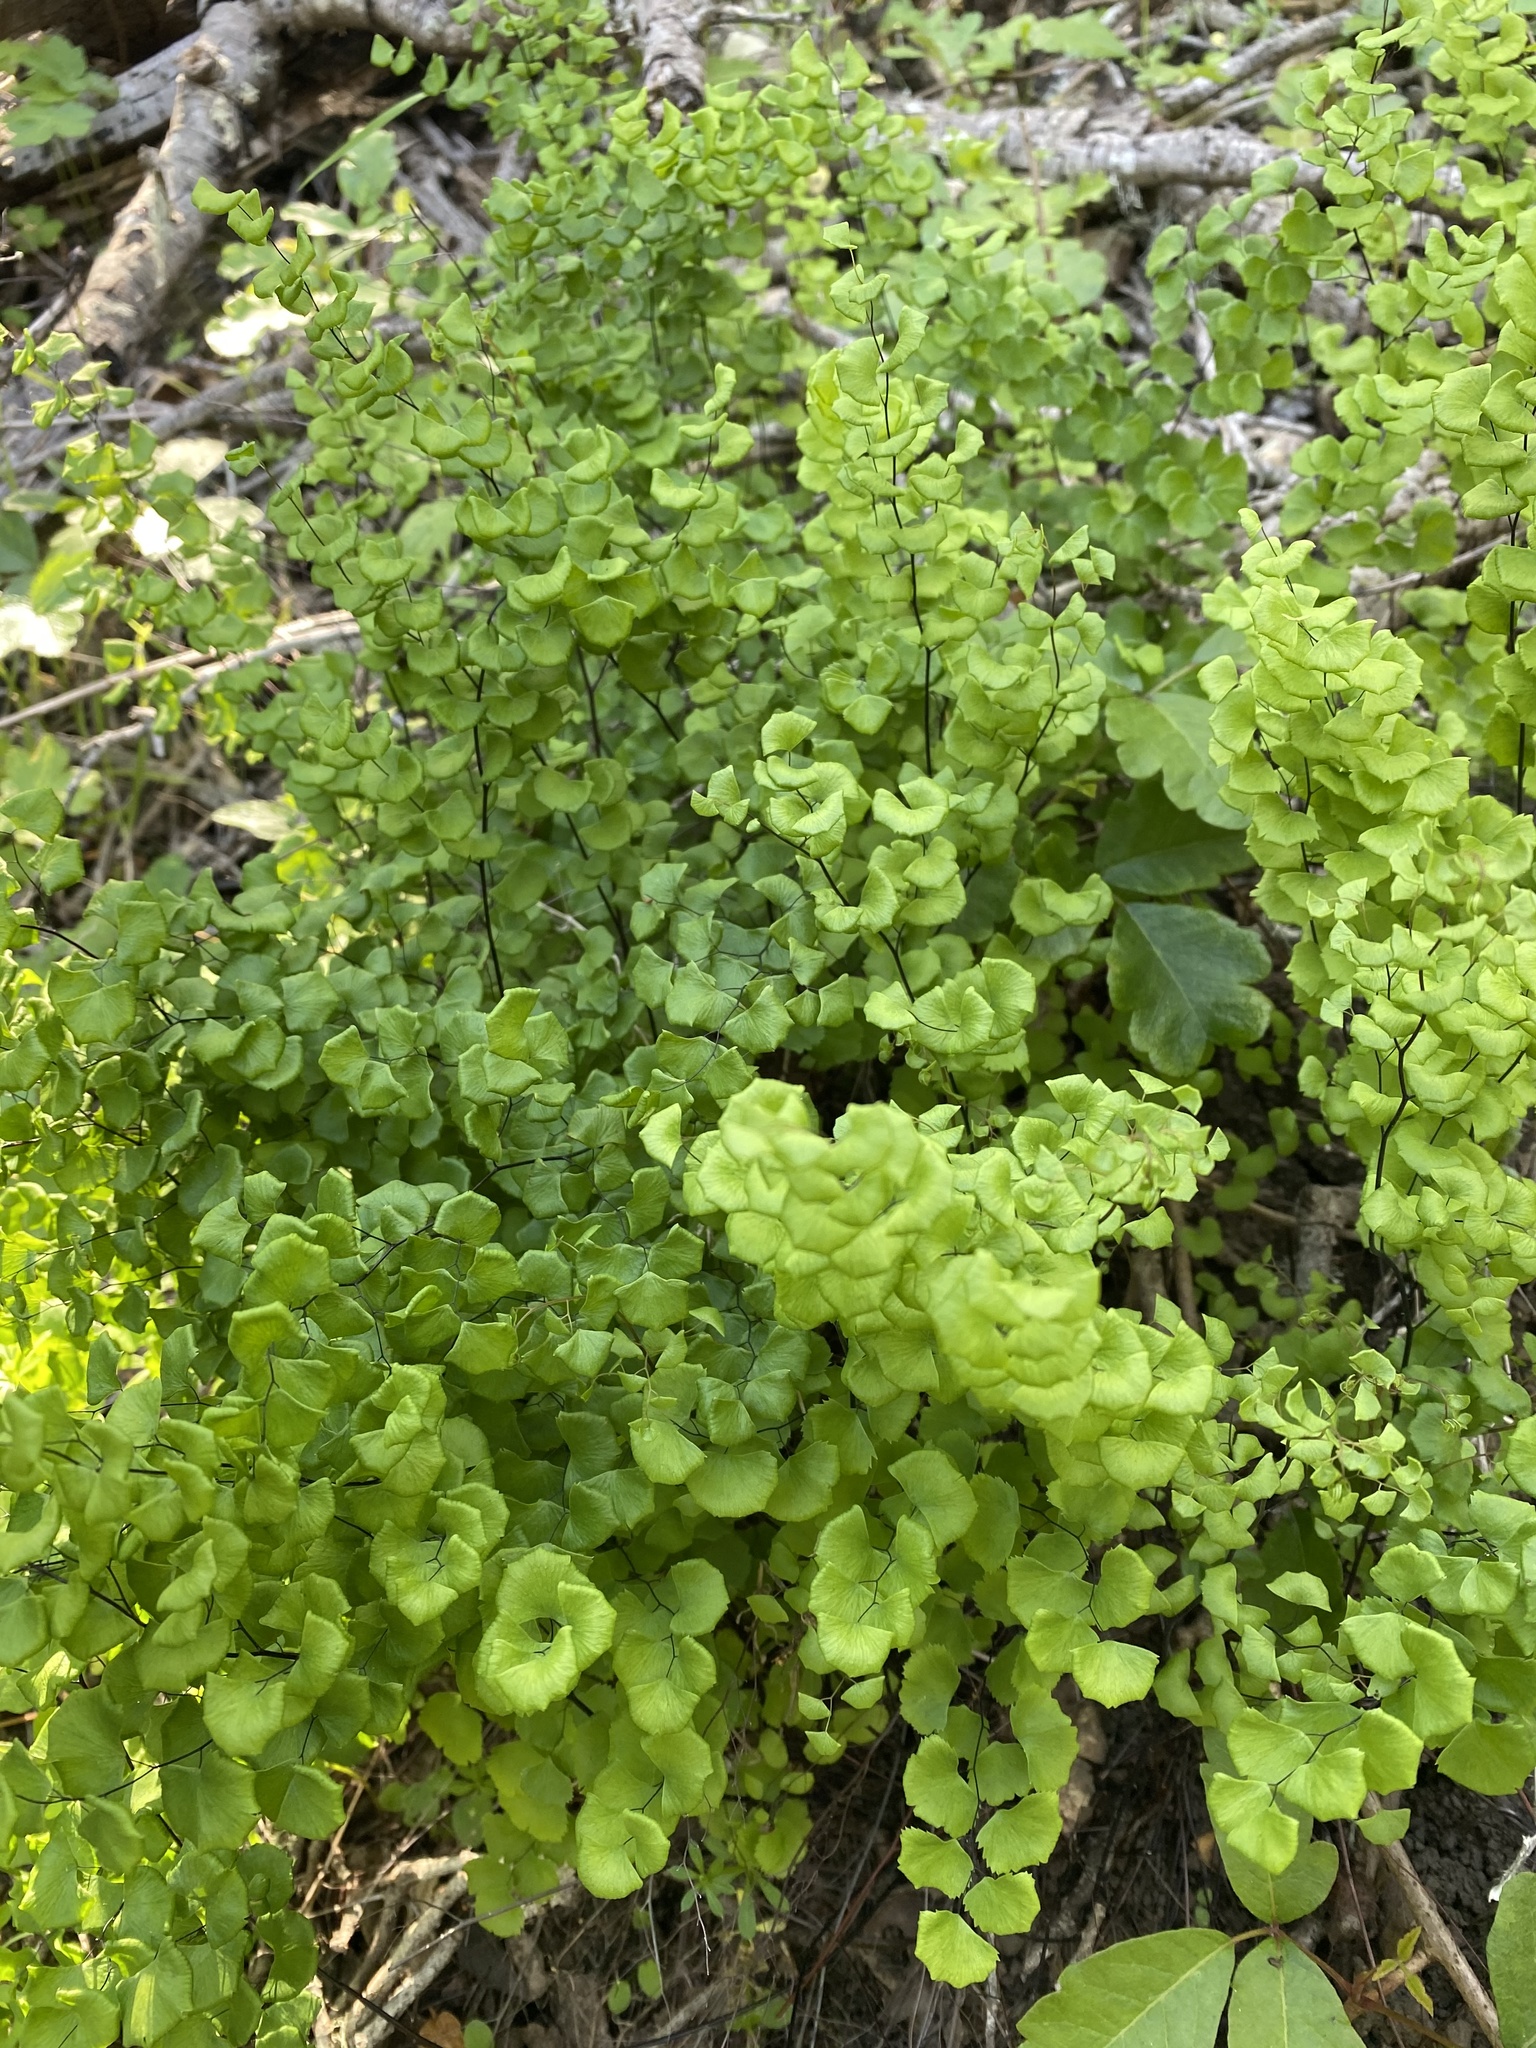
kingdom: Plantae
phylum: Tracheophyta
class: Polypodiopsida
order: Polypodiales
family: Pteridaceae
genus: Adiantum
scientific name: Adiantum jordanii
